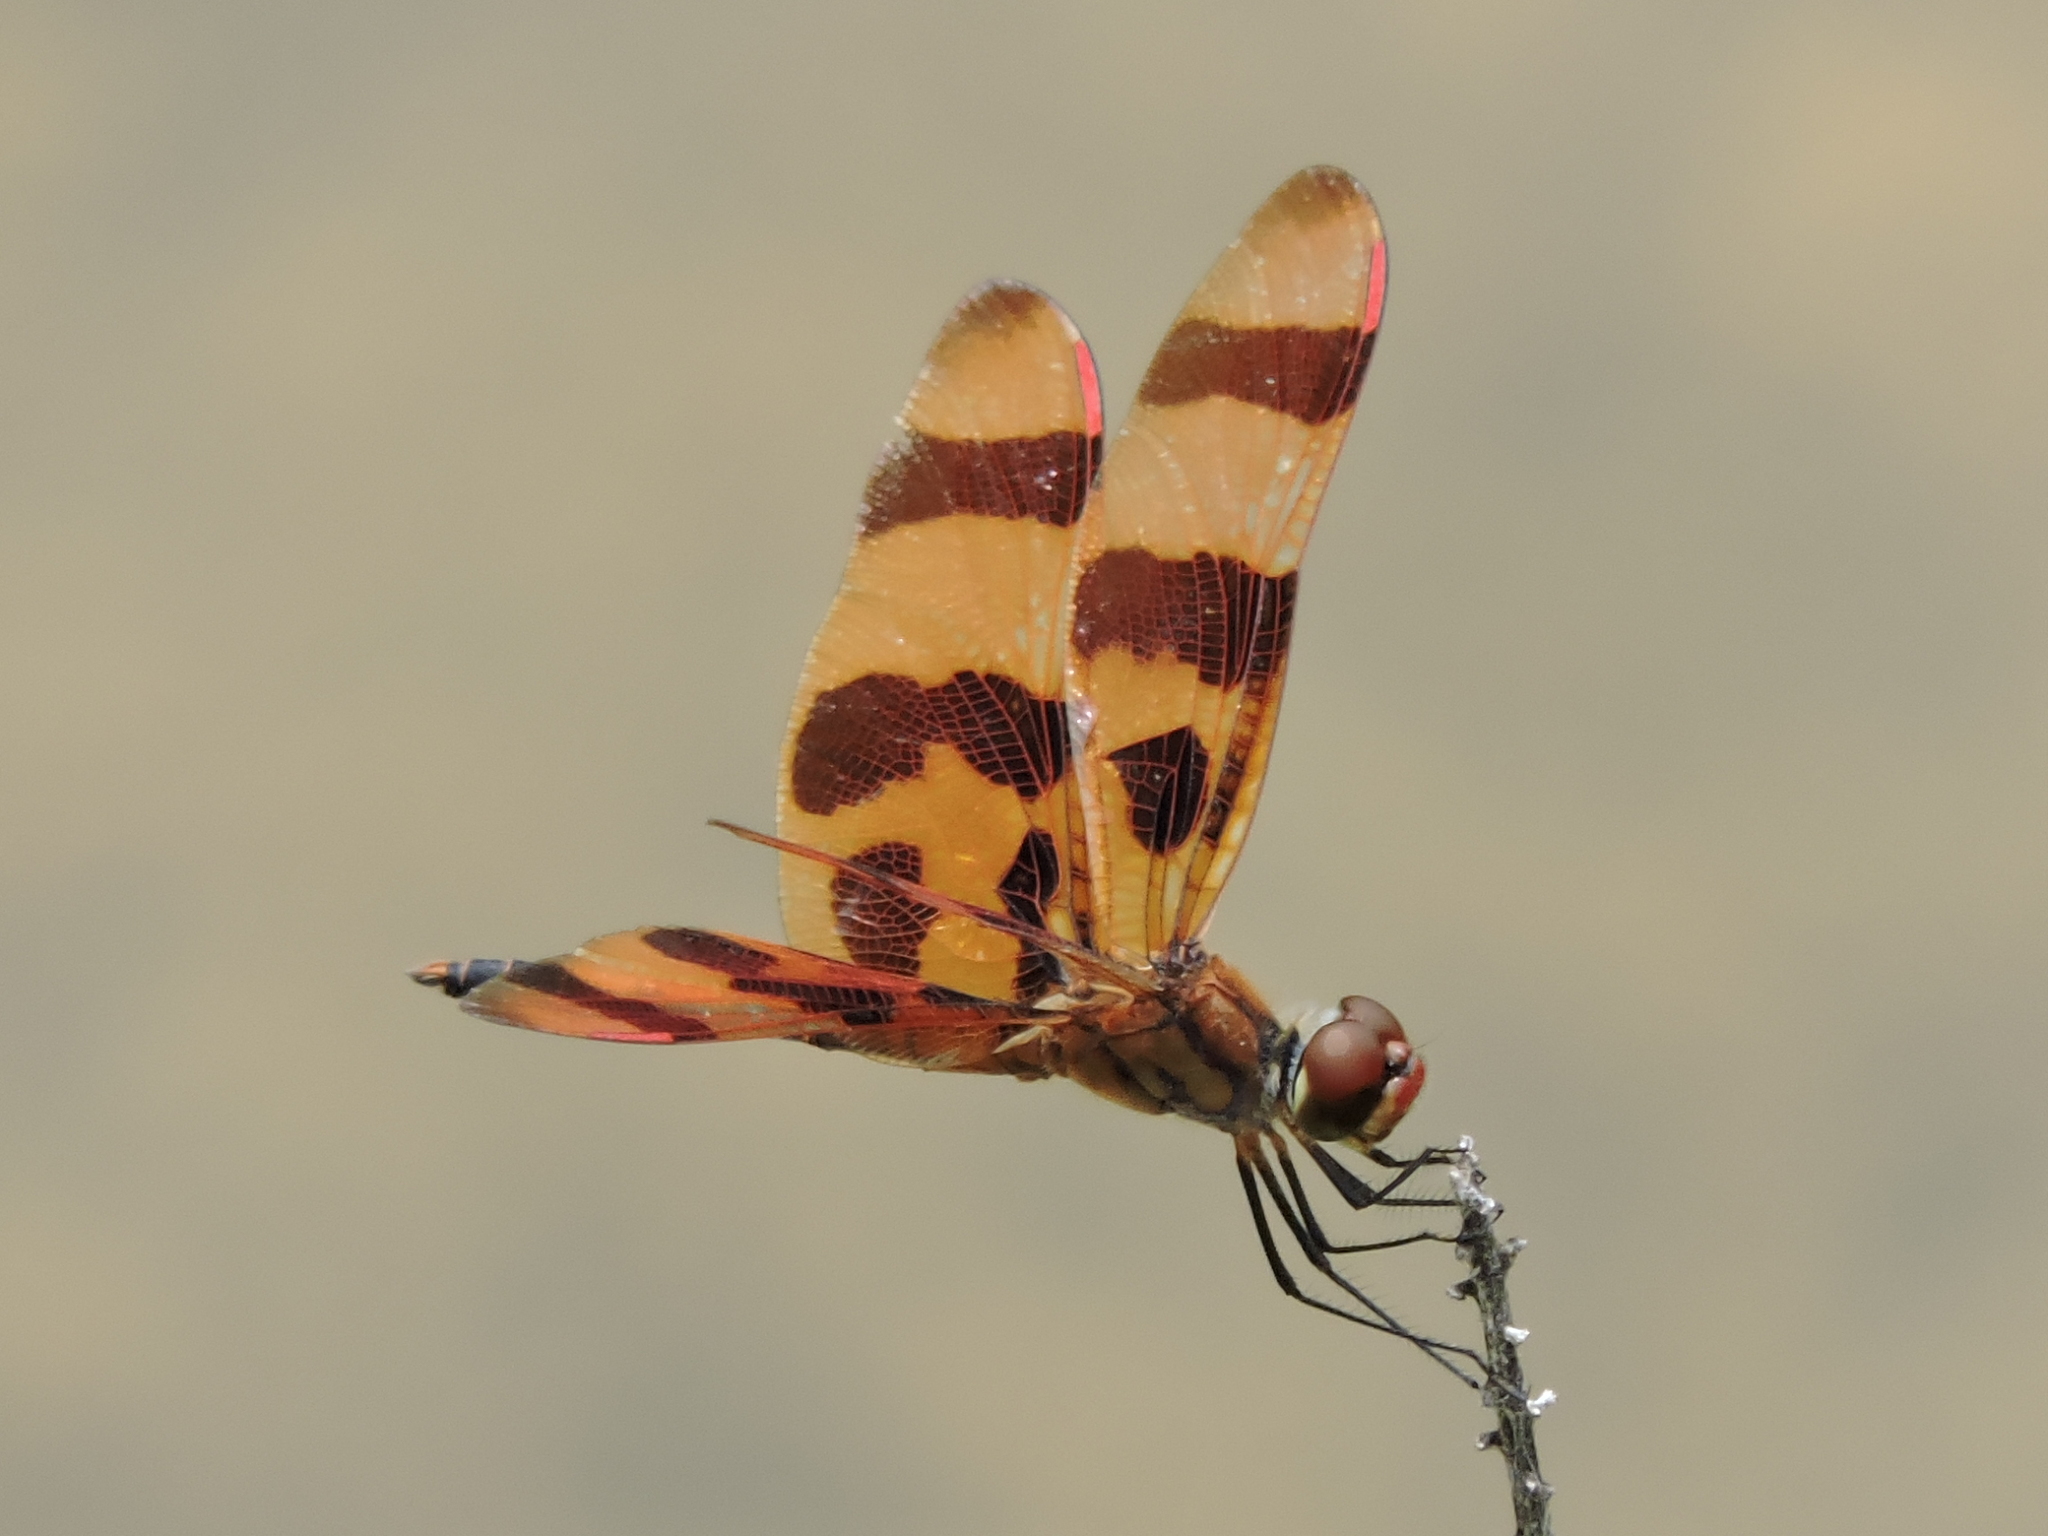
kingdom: Animalia
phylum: Arthropoda
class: Insecta
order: Odonata
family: Libellulidae
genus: Celithemis
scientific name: Celithemis eponina
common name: Halloween pennant
